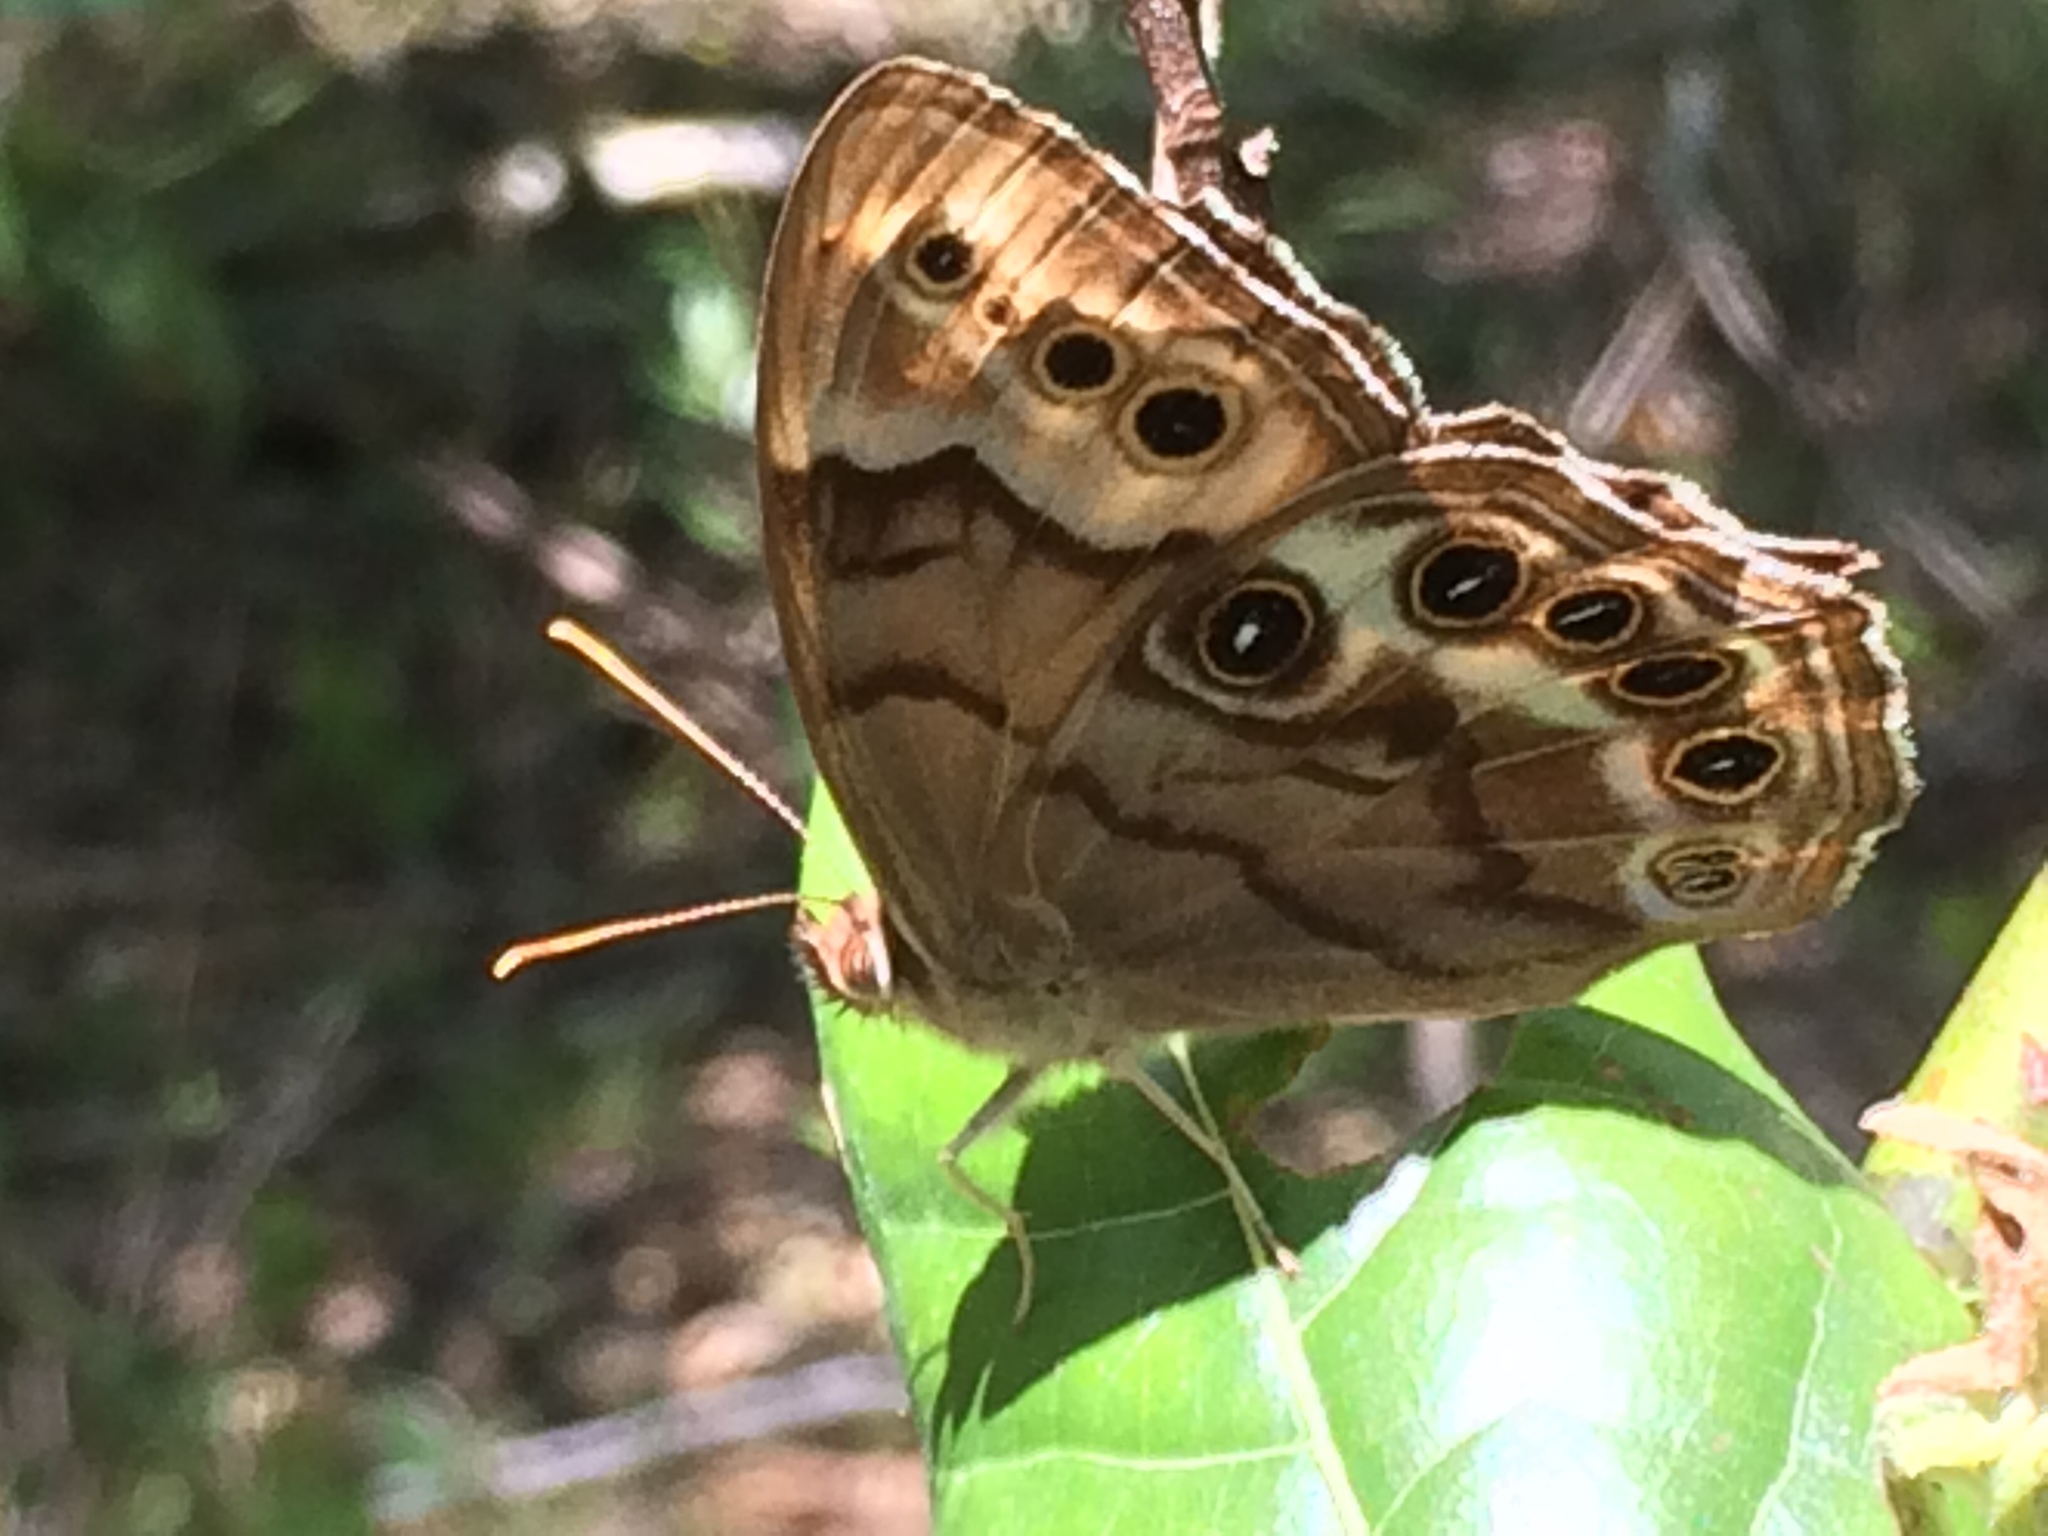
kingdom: Animalia
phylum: Arthropoda
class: Insecta
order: Lepidoptera
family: Nymphalidae
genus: Enodia
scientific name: Enodia portlandia
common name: Southern pearly-eye
